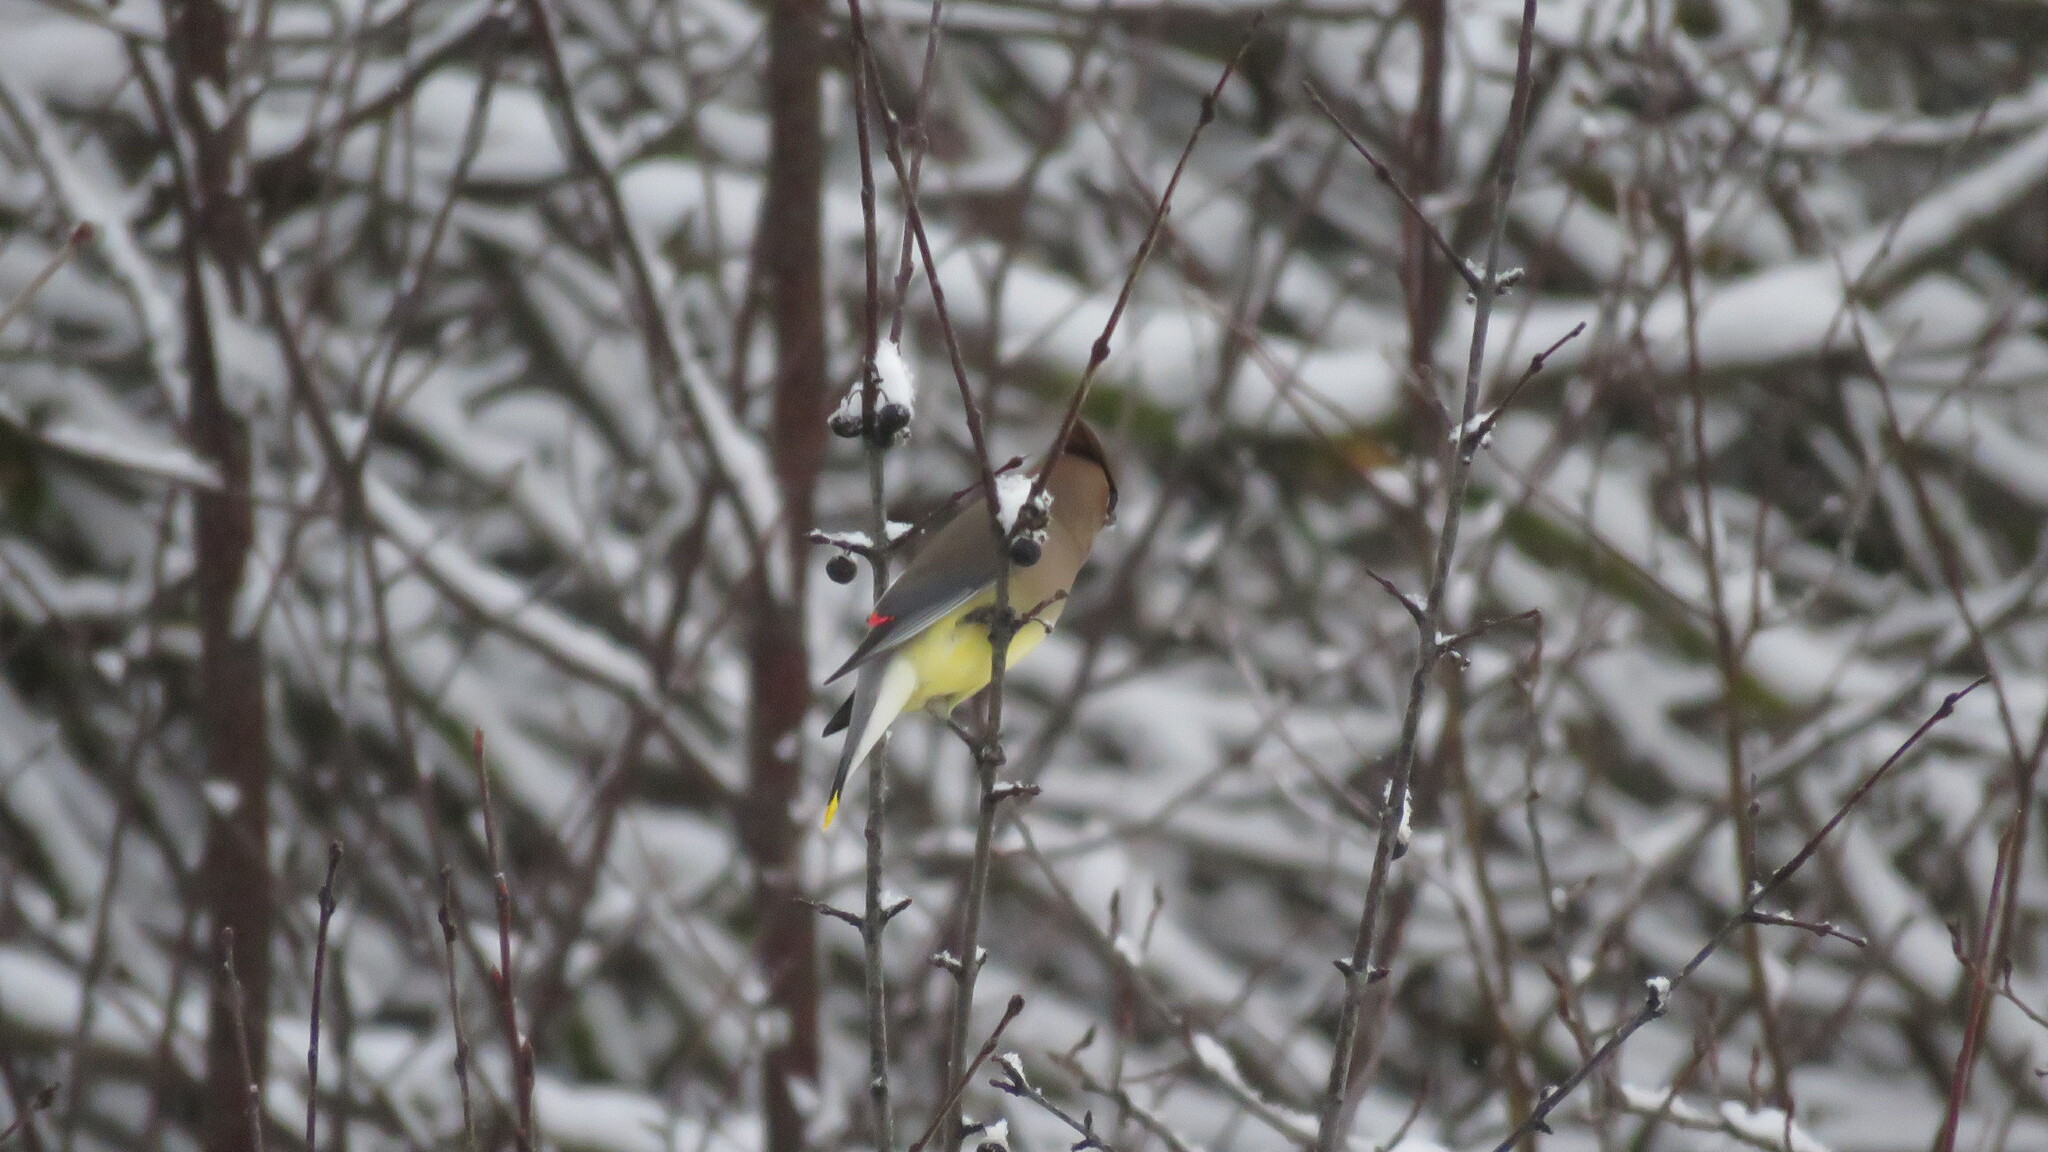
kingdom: Animalia
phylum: Chordata
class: Aves
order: Passeriformes
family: Bombycillidae
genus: Bombycilla
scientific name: Bombycilla cedrorum
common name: Cedar waxwing
